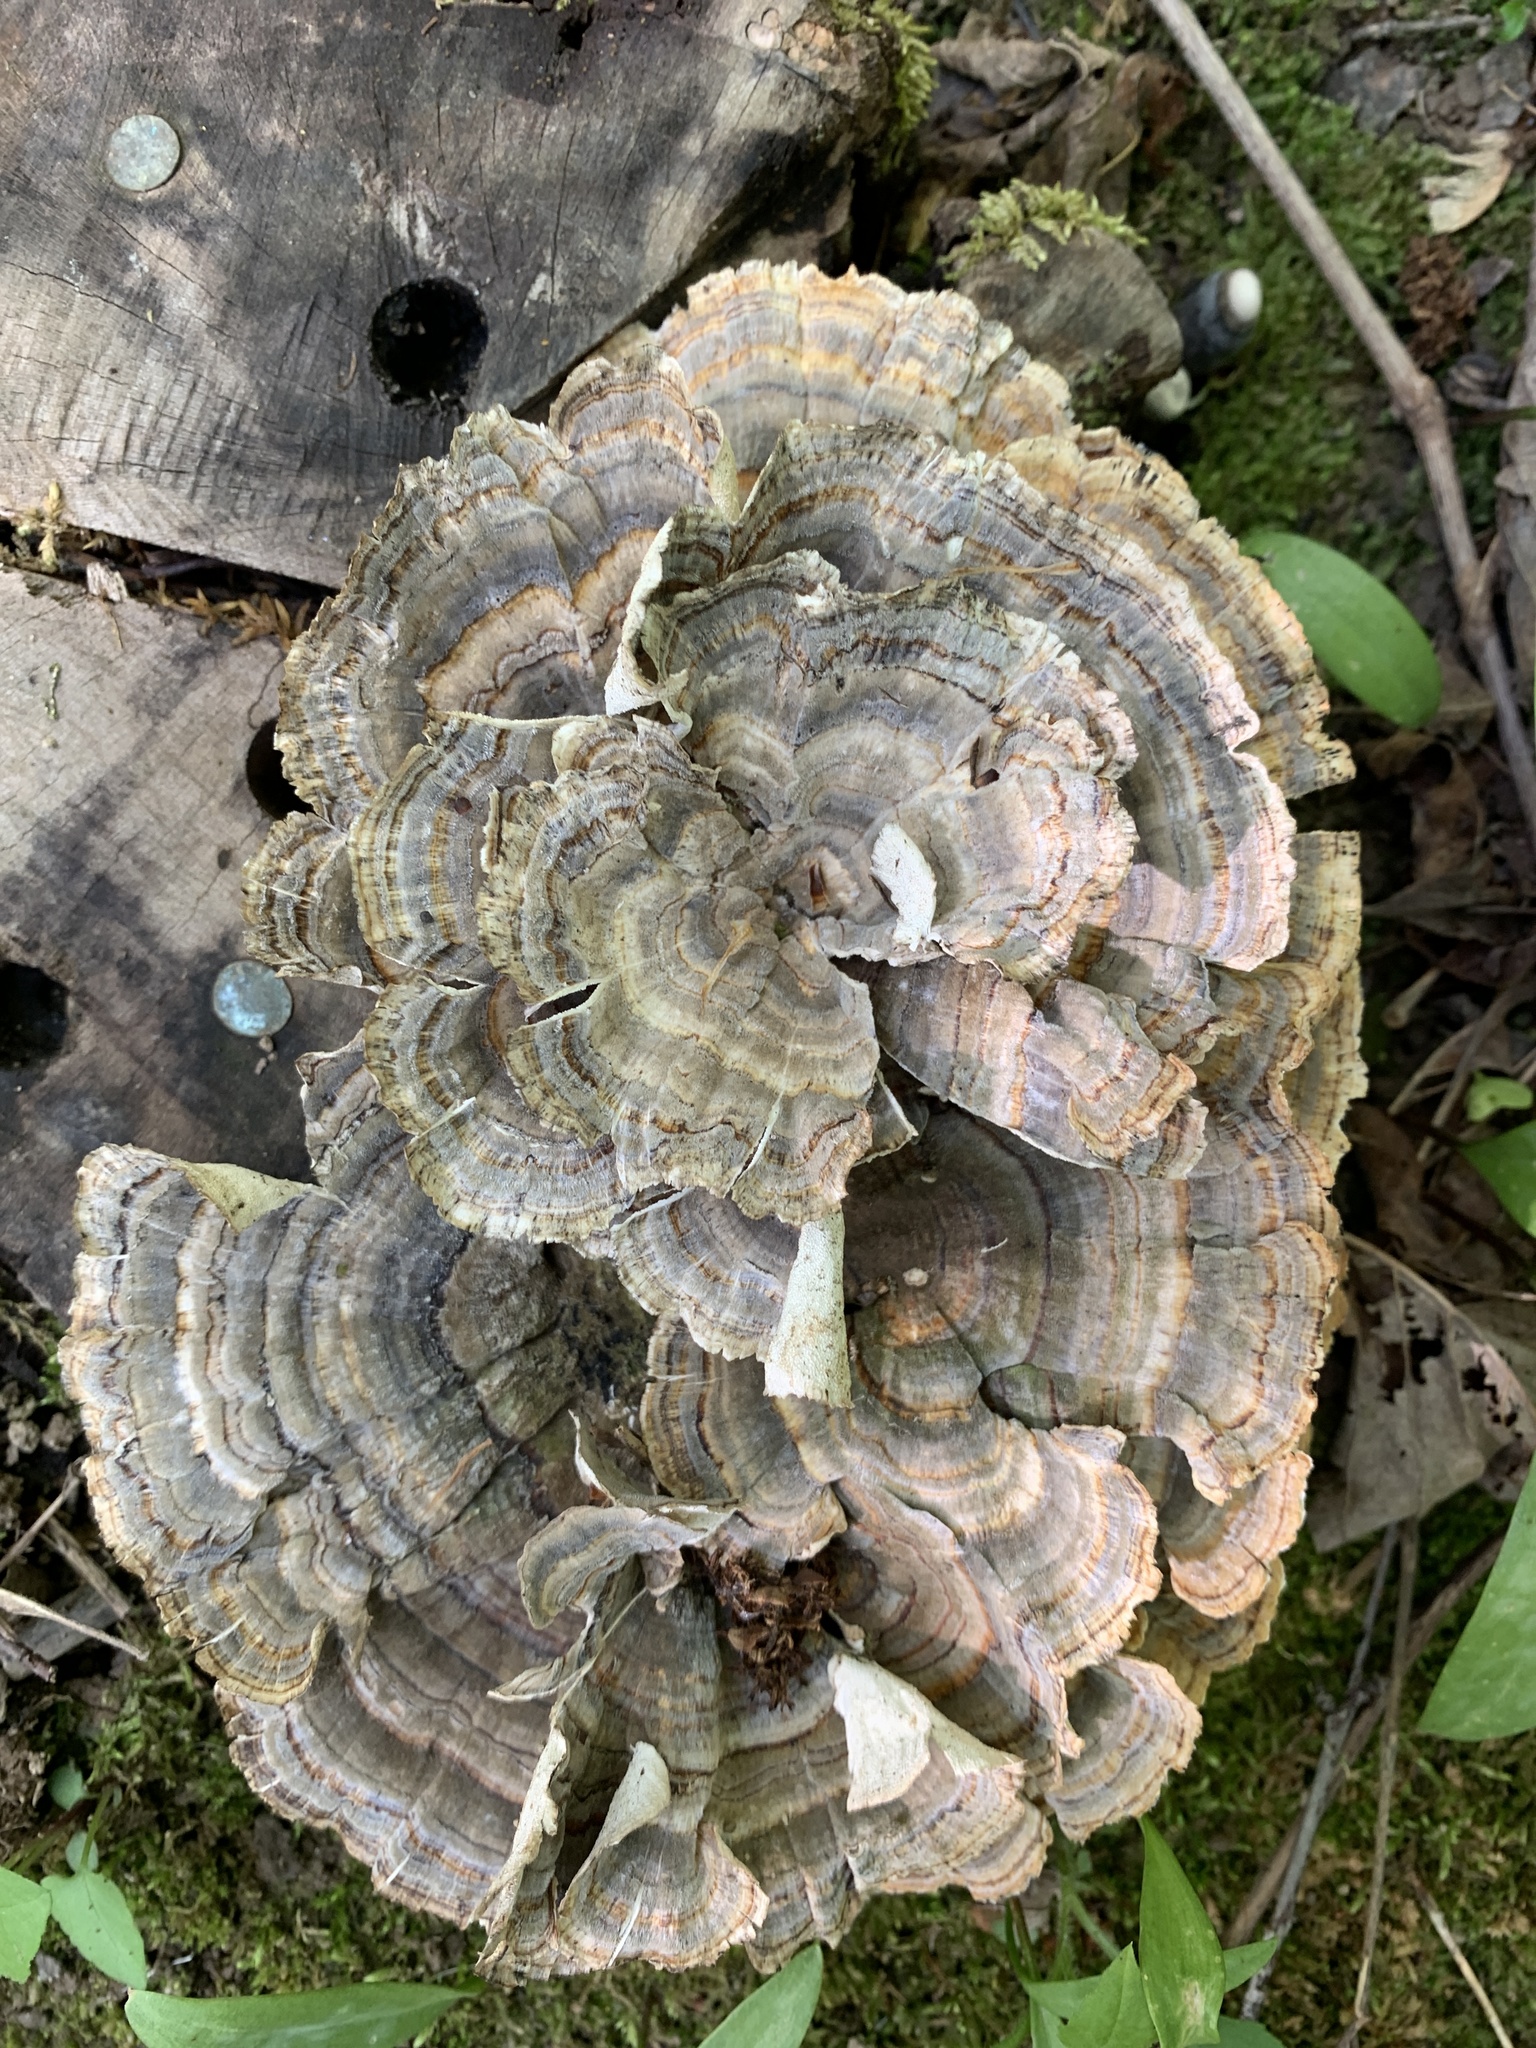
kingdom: Fungi
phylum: Basidiomycota
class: Agaricomycetes
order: Polyporales
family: Polyporaceae
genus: Trametes
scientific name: Trametes versicolor
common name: Turkeytail
